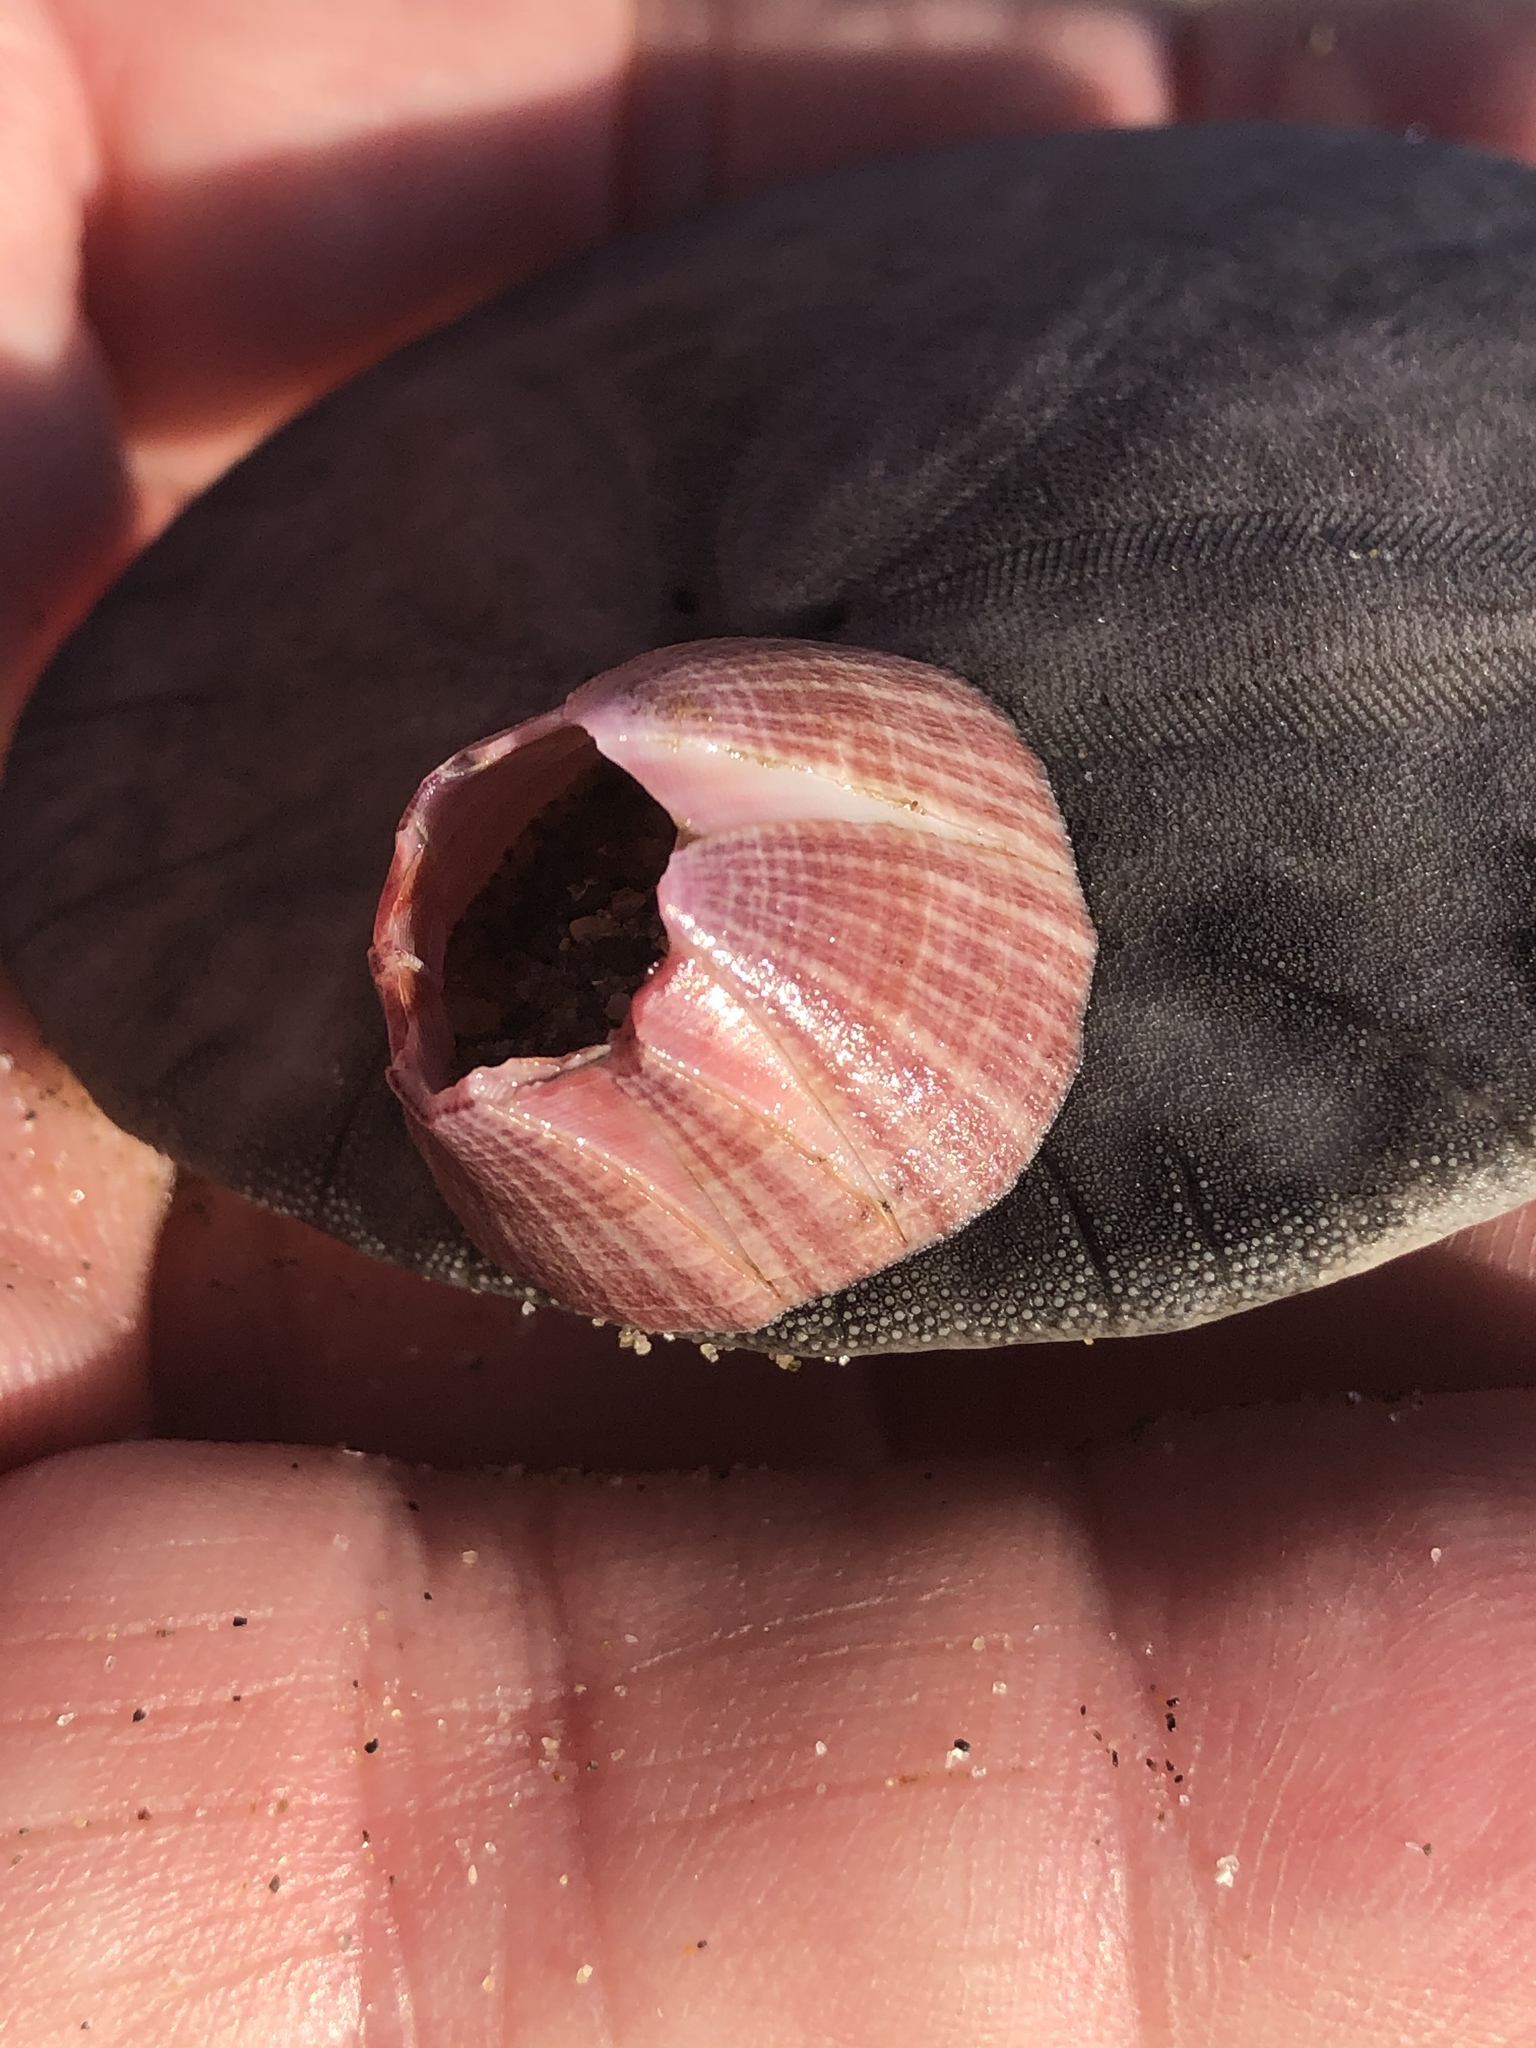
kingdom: Animalia
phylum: Arthropoda
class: Maxillopoda
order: Sessilia
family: Balanidae
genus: Paraconcavus
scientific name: Paraconcavus pacificus
